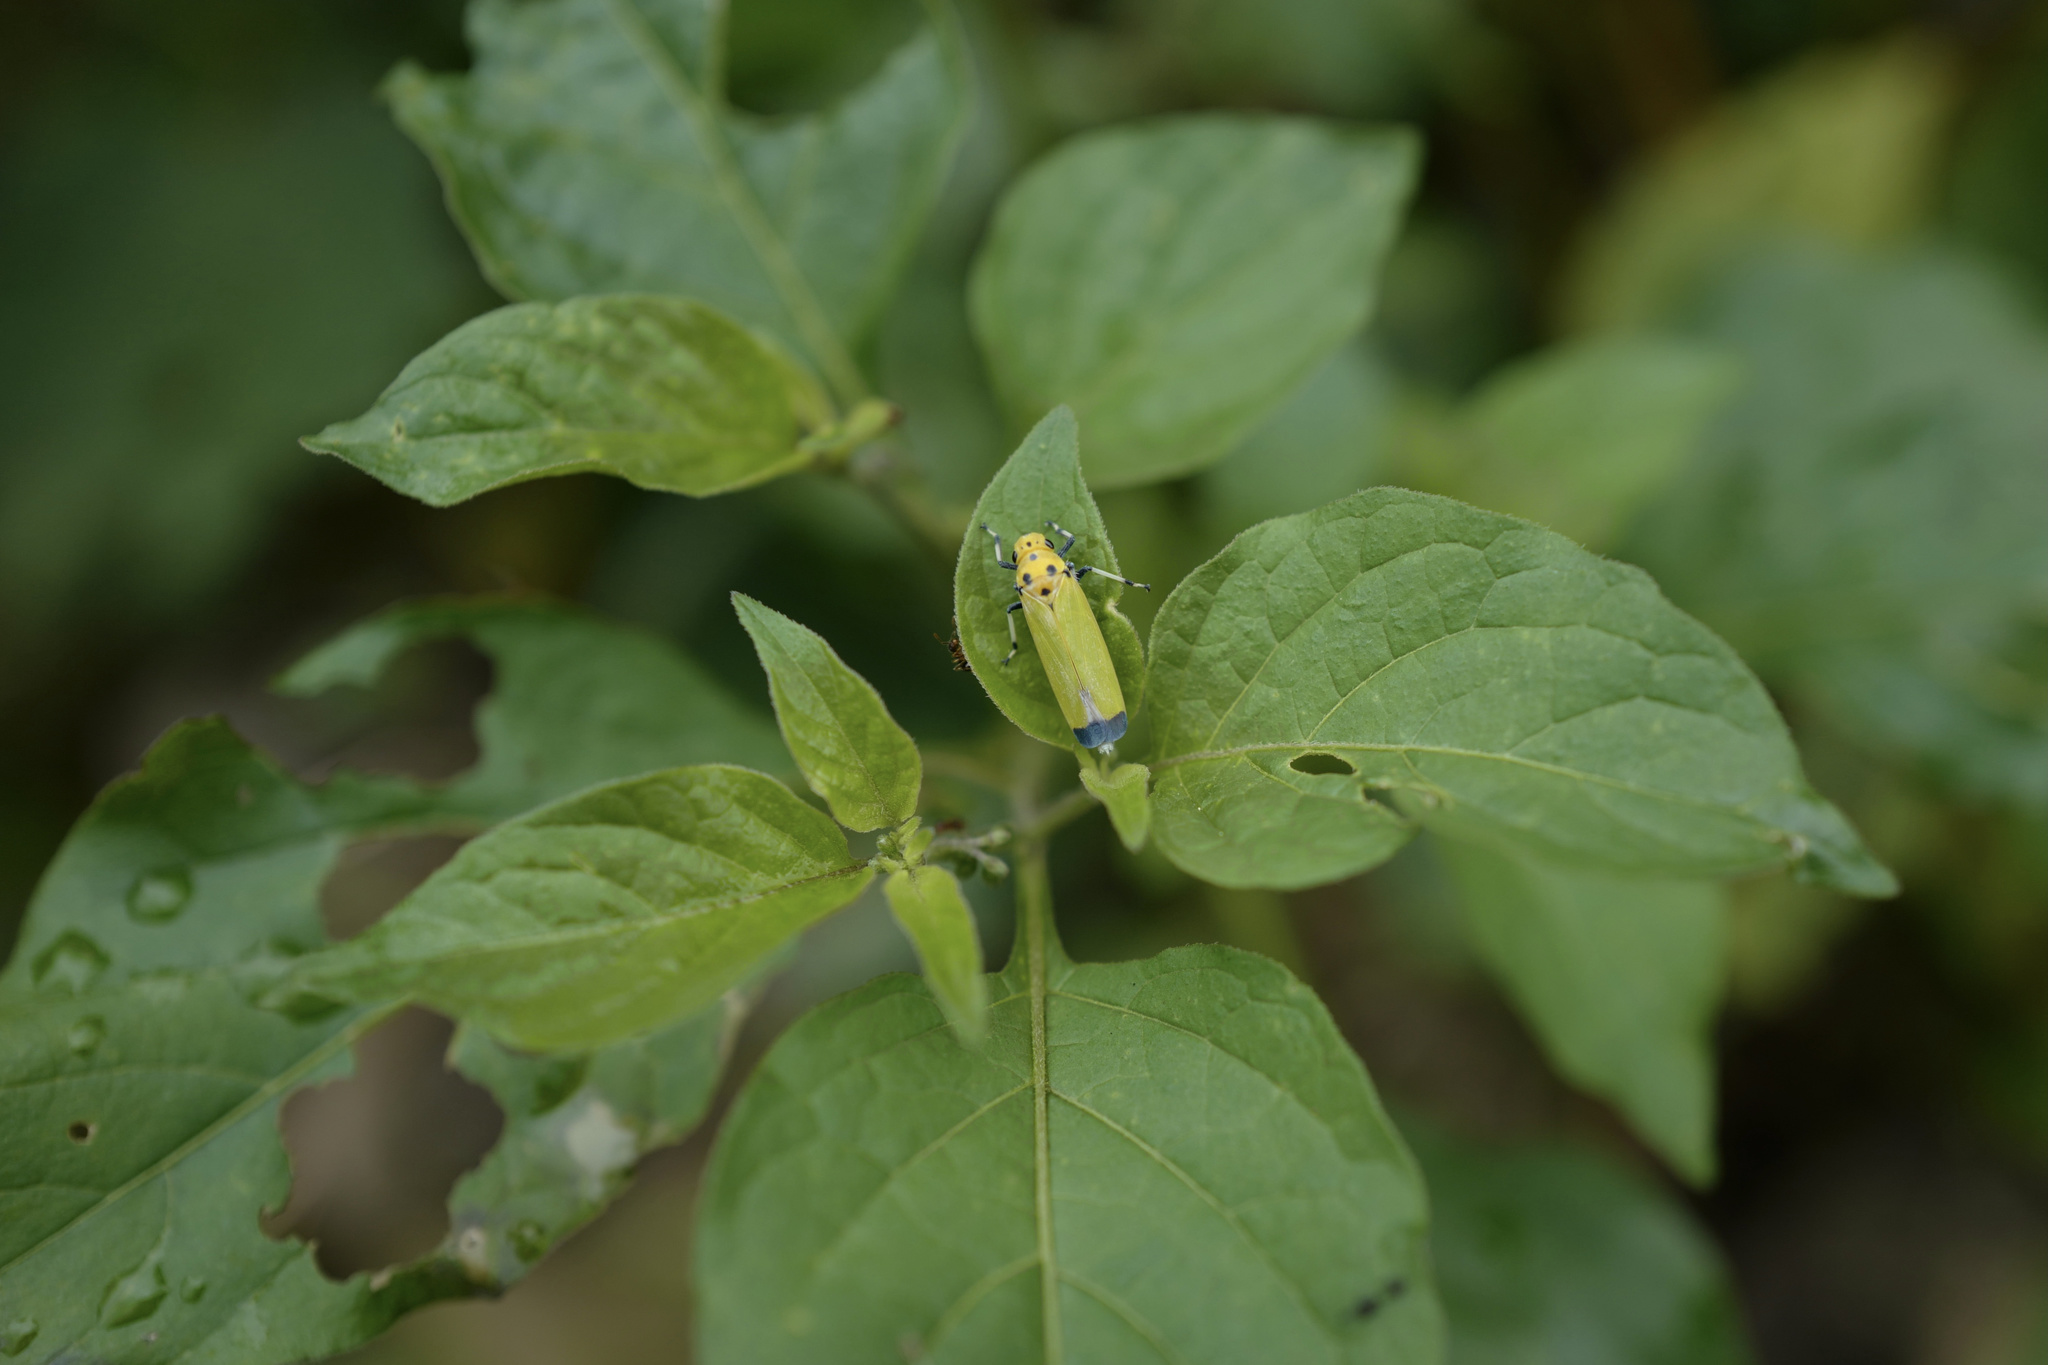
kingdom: Animalia
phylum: Arthropoda
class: Insecta
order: Hemiptera
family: Cicadellidae
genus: Bothrogonia
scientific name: Bothrogonia ferruginea
